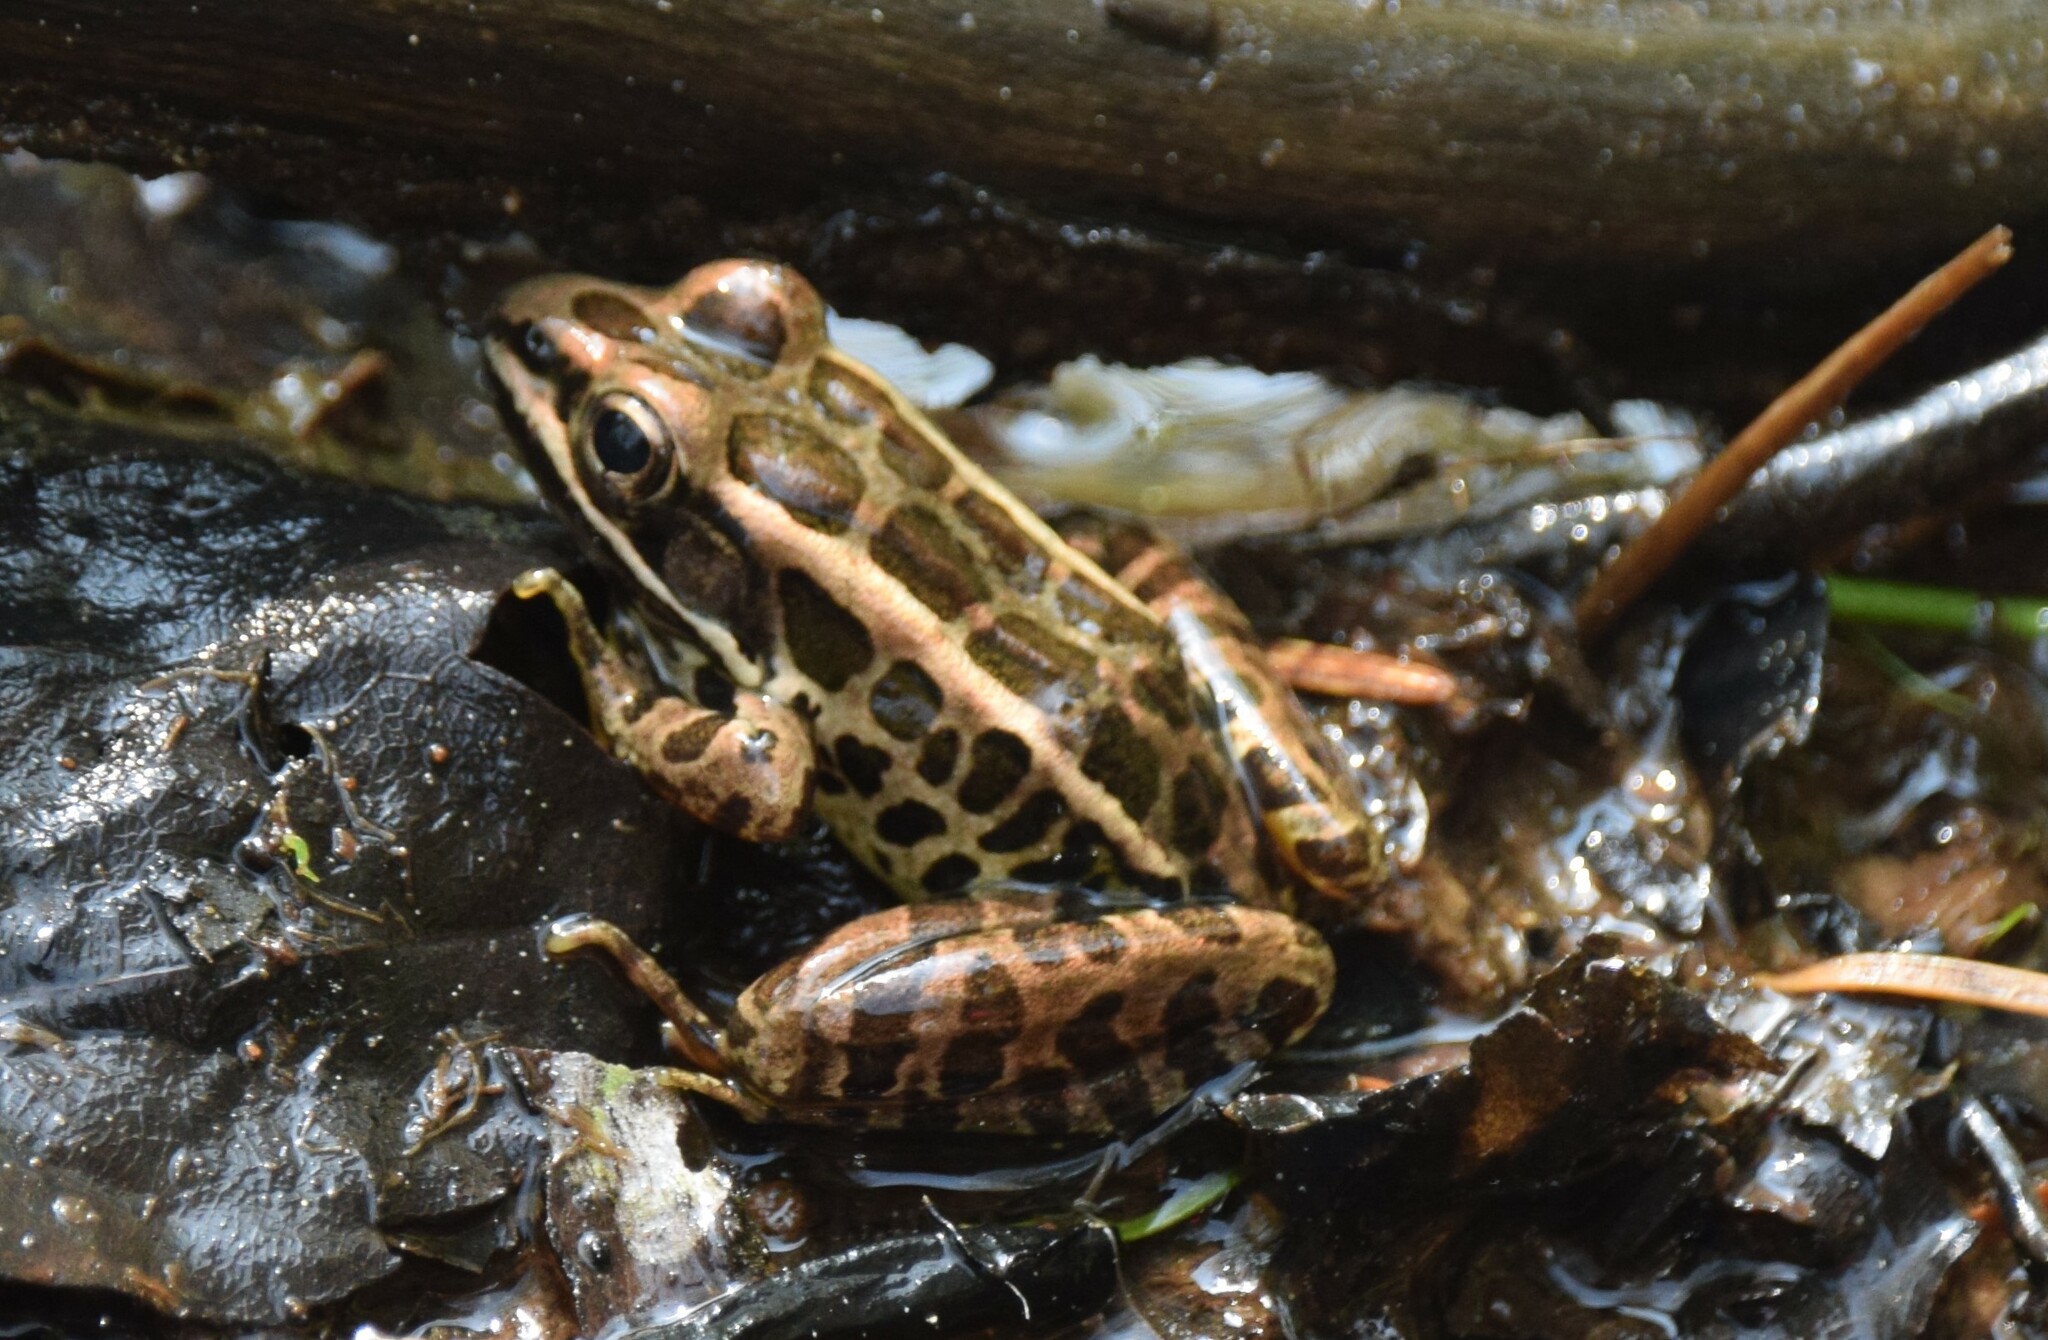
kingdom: Animalia
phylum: Chordata
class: Amphibia
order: Anura
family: Ranidae
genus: Lithobates
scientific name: Lithobates palustris
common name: Pickerel frog
